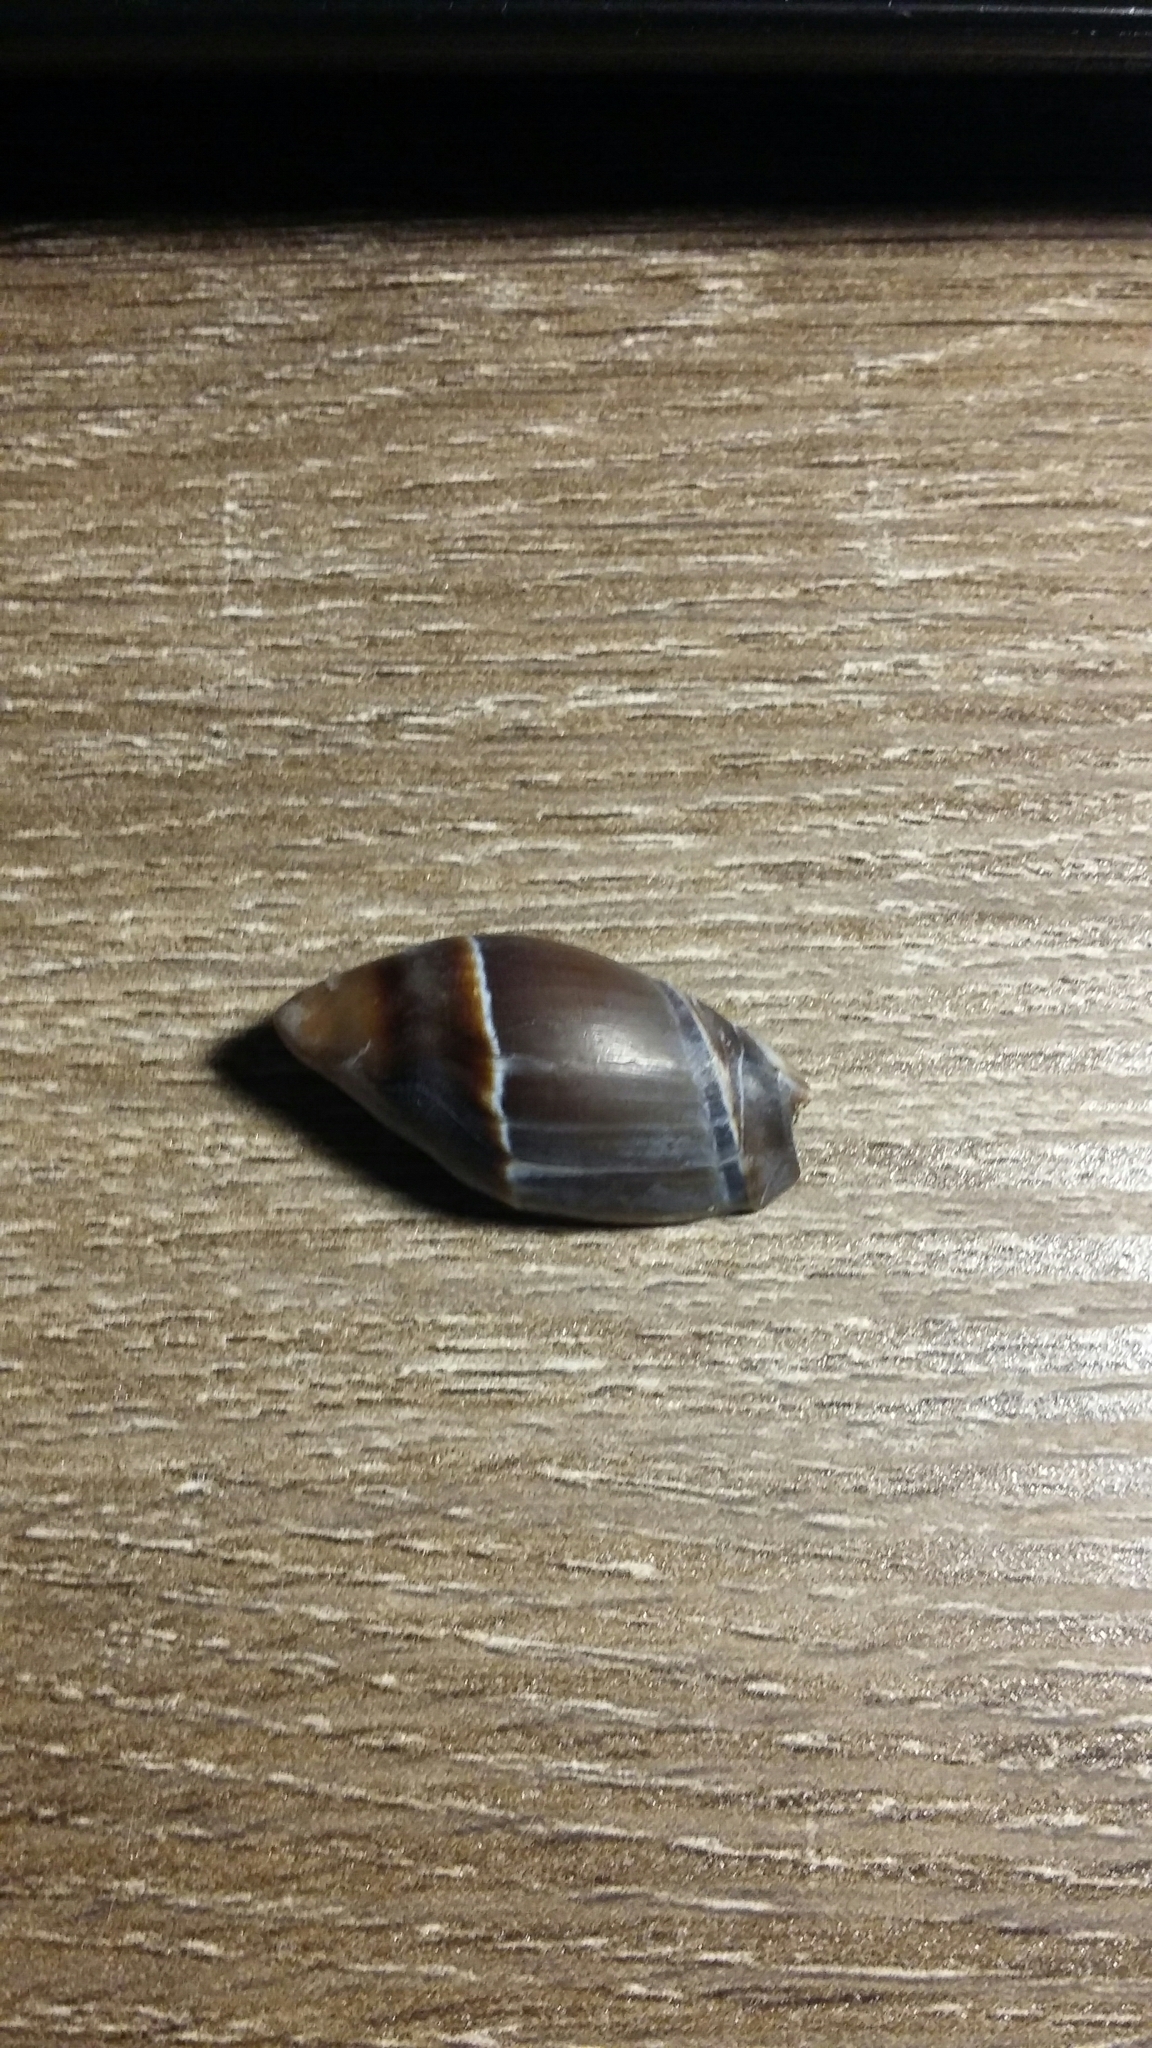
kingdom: Animalia
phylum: Mollusca
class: Gastropoda
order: Neogastropoda
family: Ancillariidae
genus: Amalda
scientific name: Amalda australis
